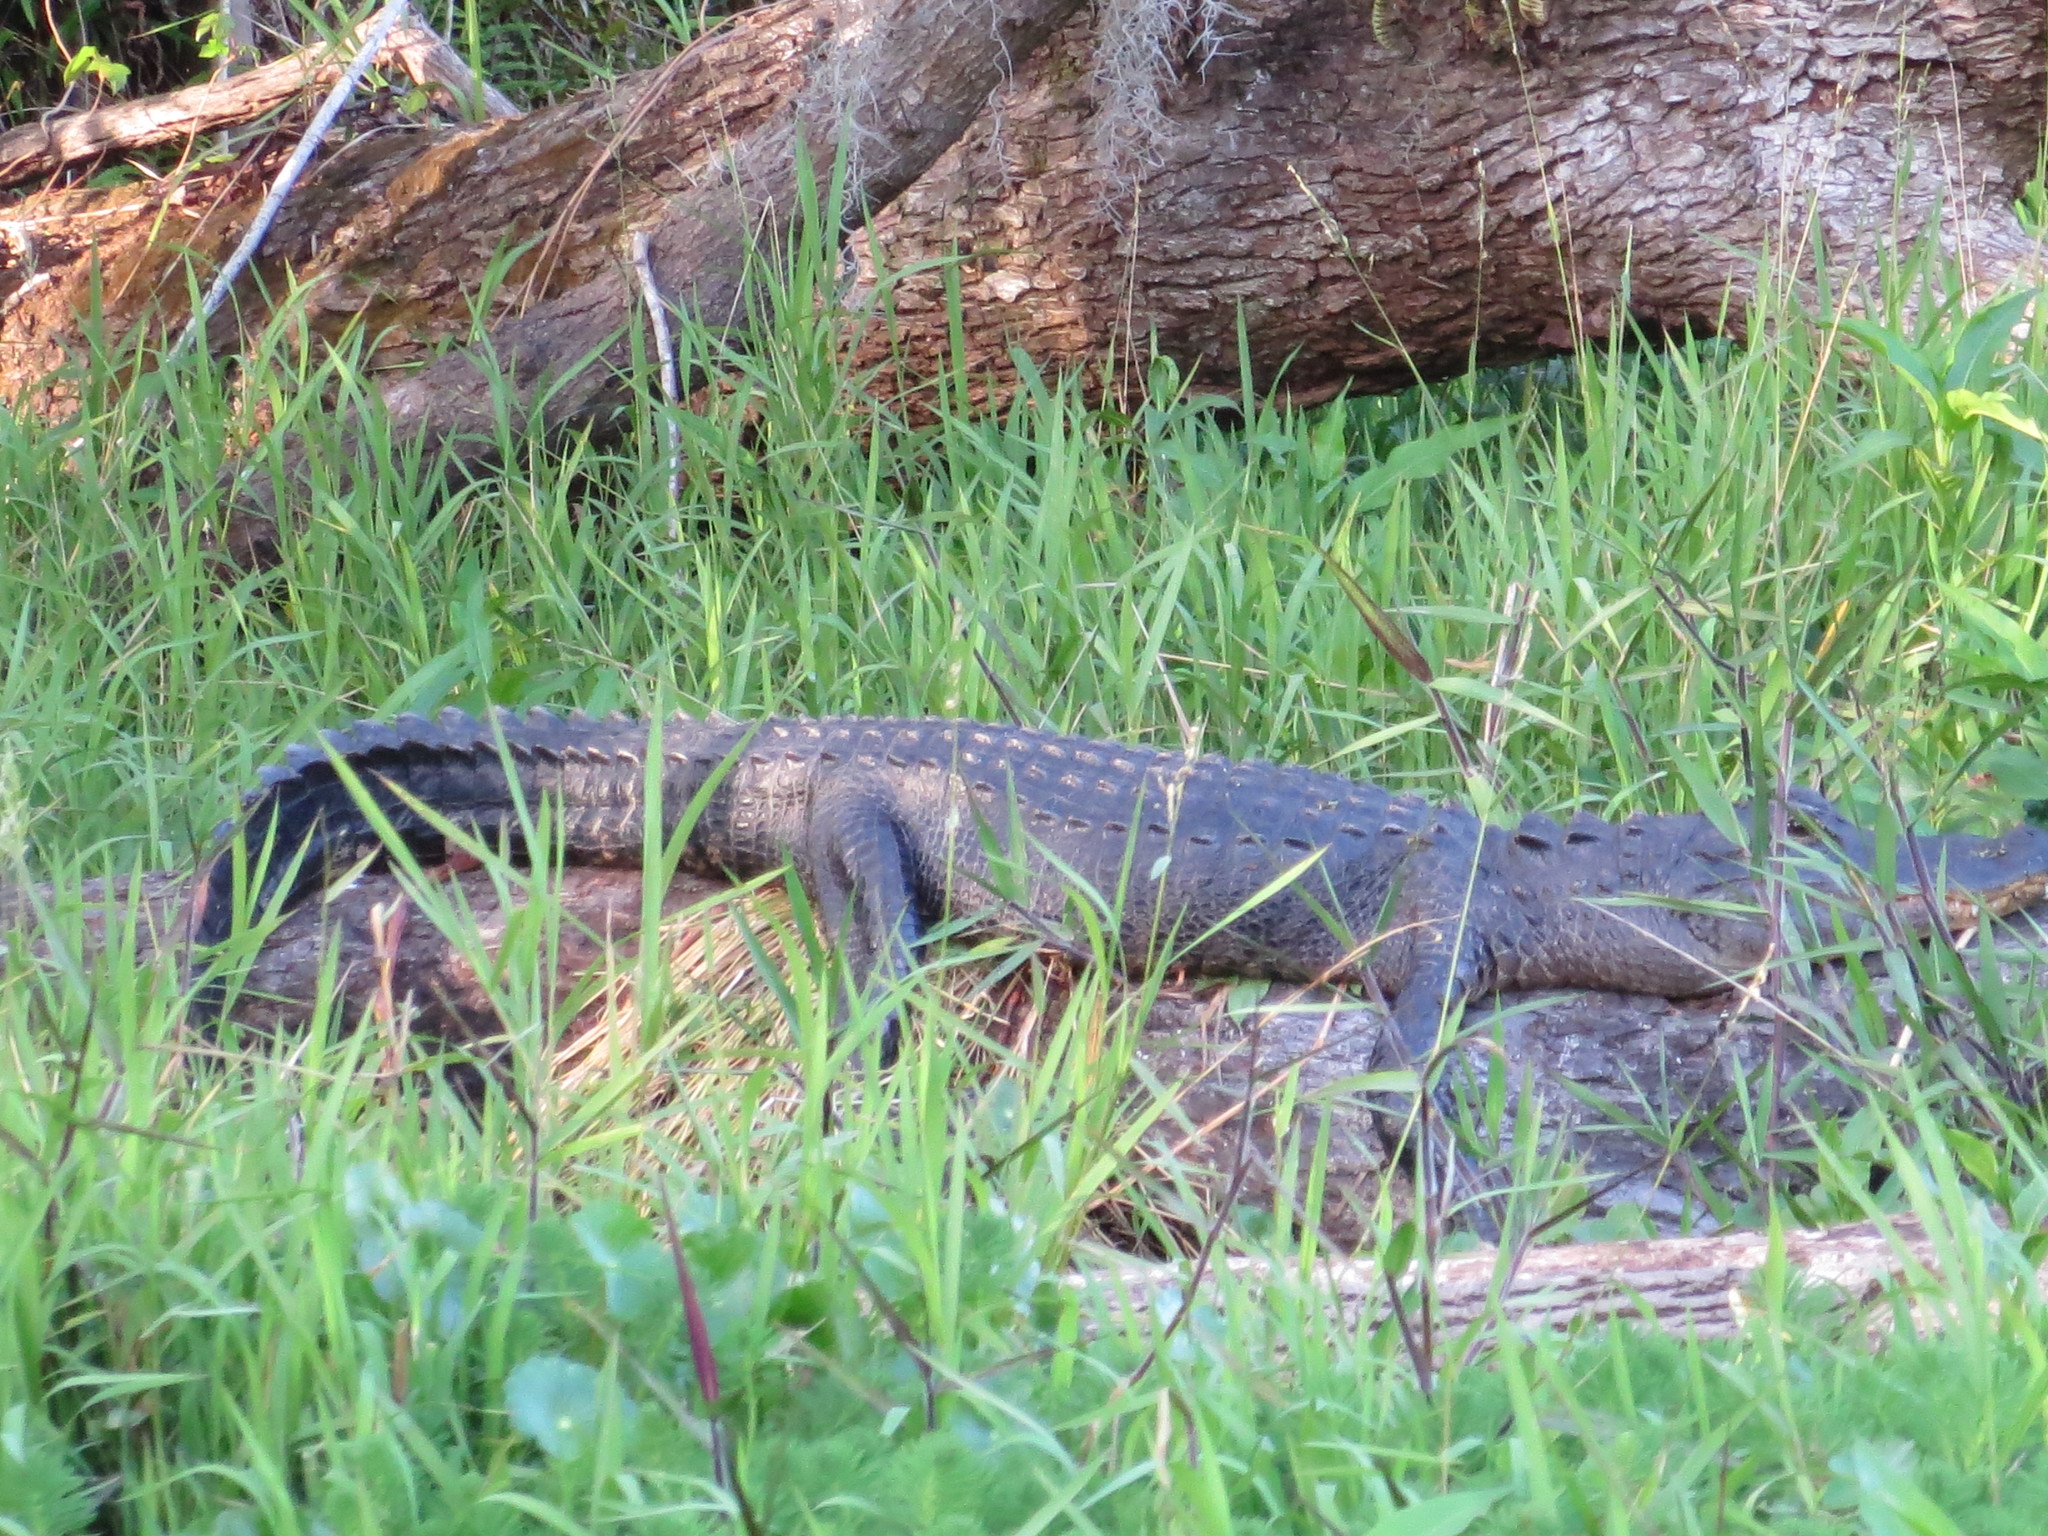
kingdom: Animalia
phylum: Chordata
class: Crocodylia
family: Alligatoridae
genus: Alligator
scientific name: Alligator mississippiensis
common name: American alligator
